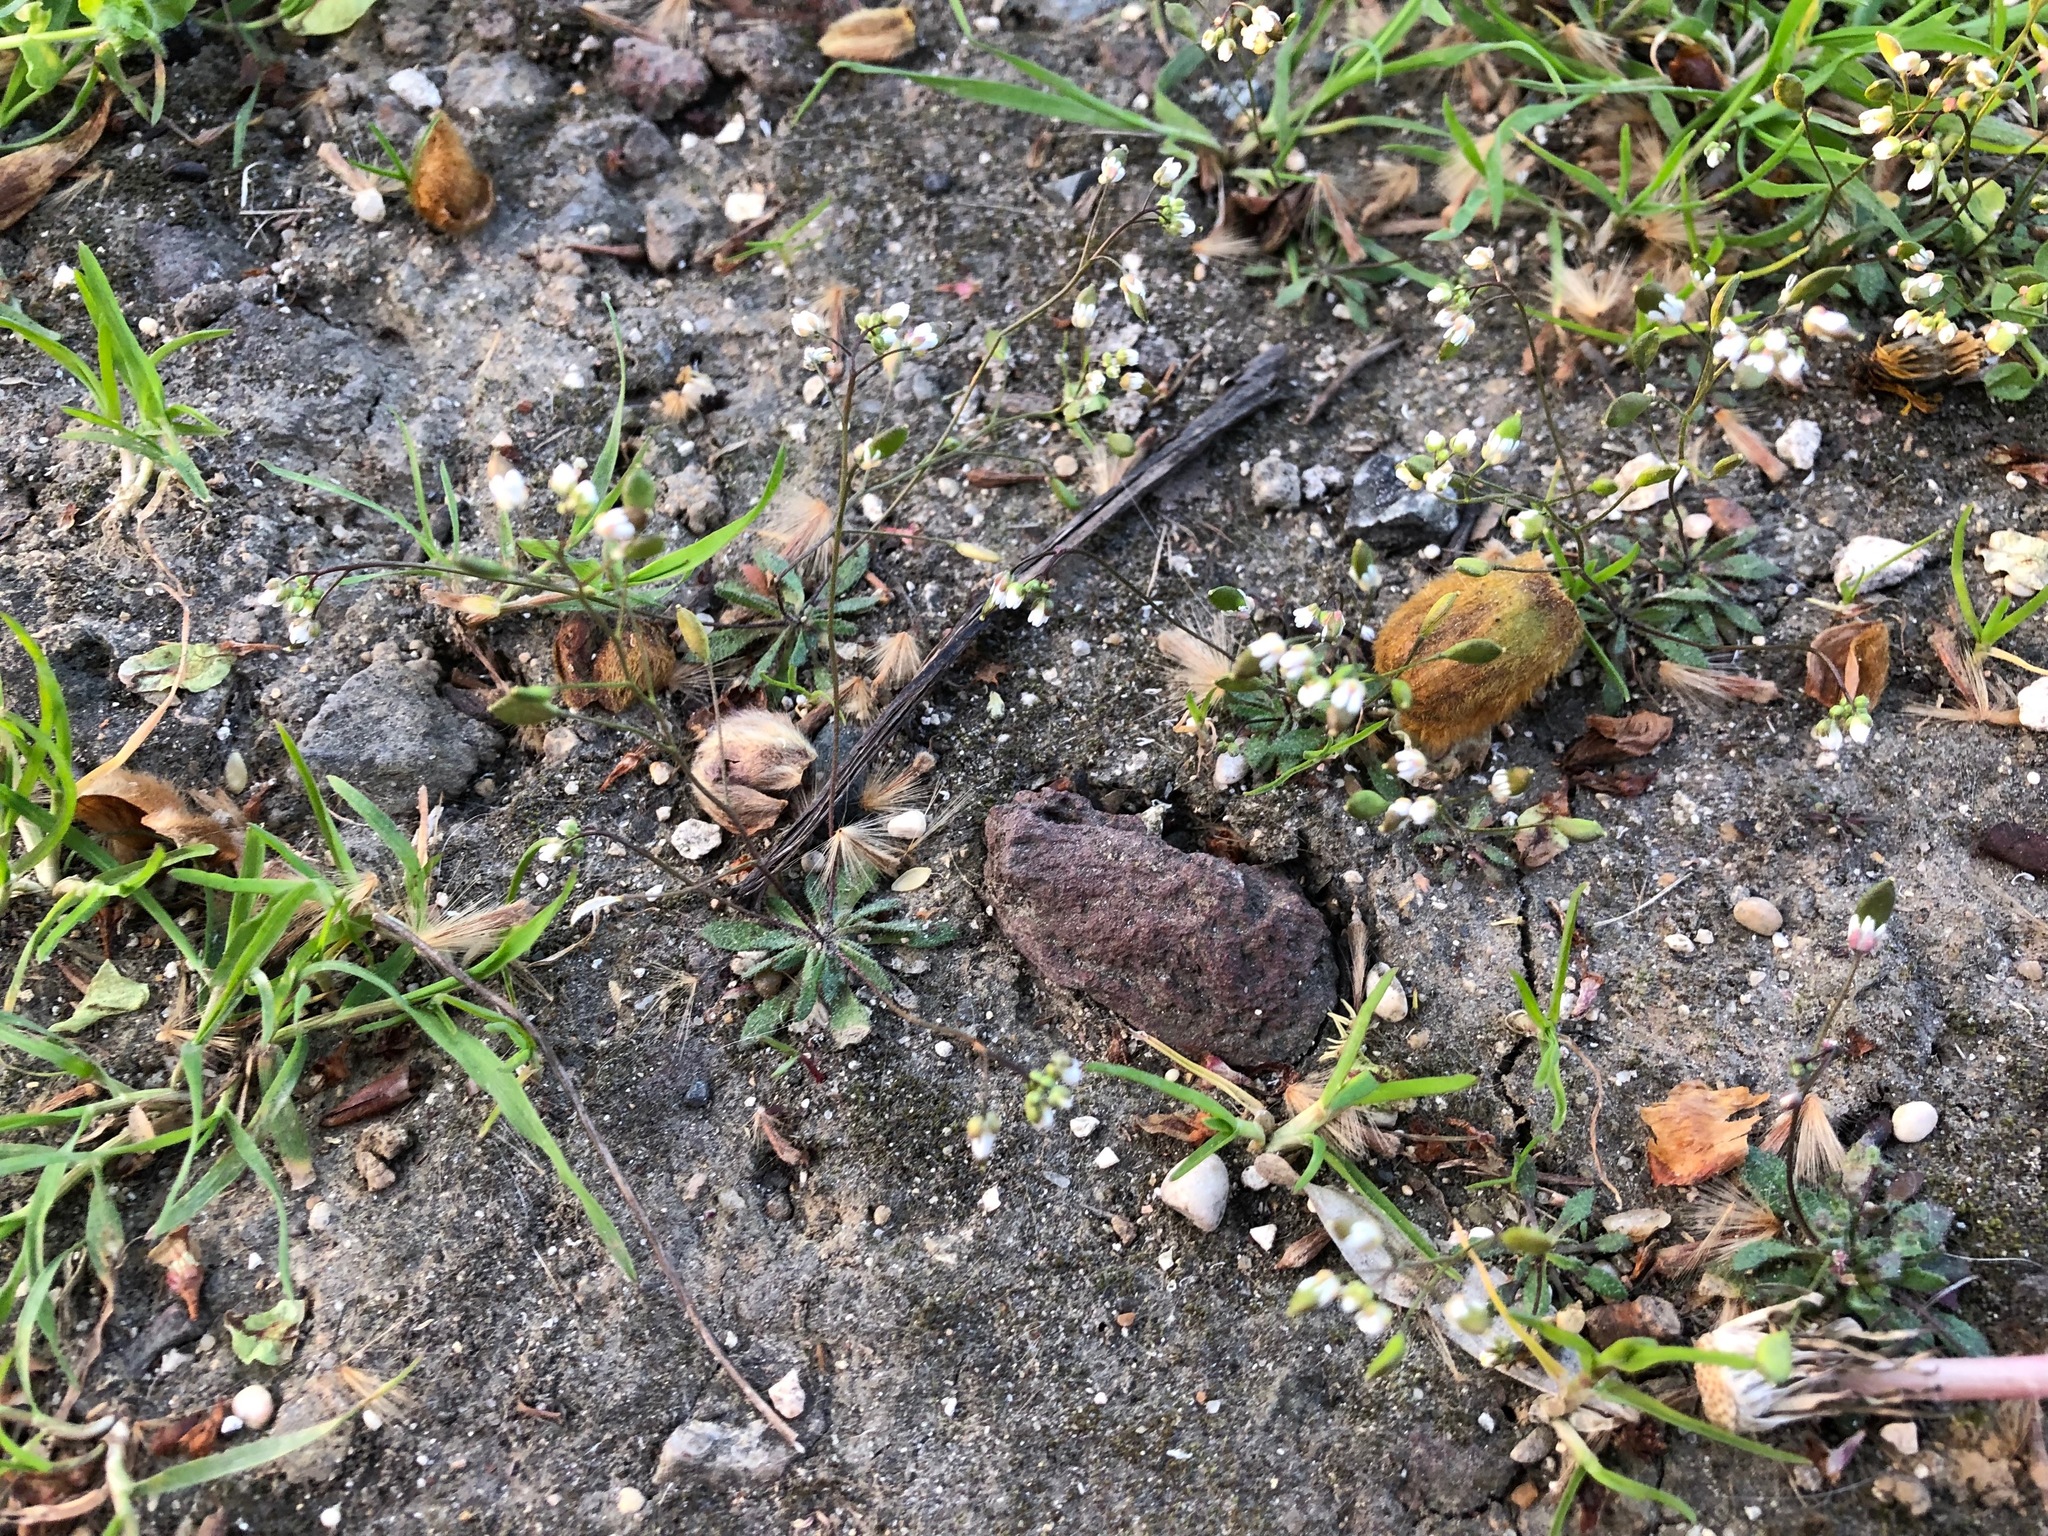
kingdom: Plantae
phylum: Tracheophyta
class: Magnoliopsida
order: Brassicales
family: Brassicaceae
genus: Draba
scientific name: Draba verna
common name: Spring draba
